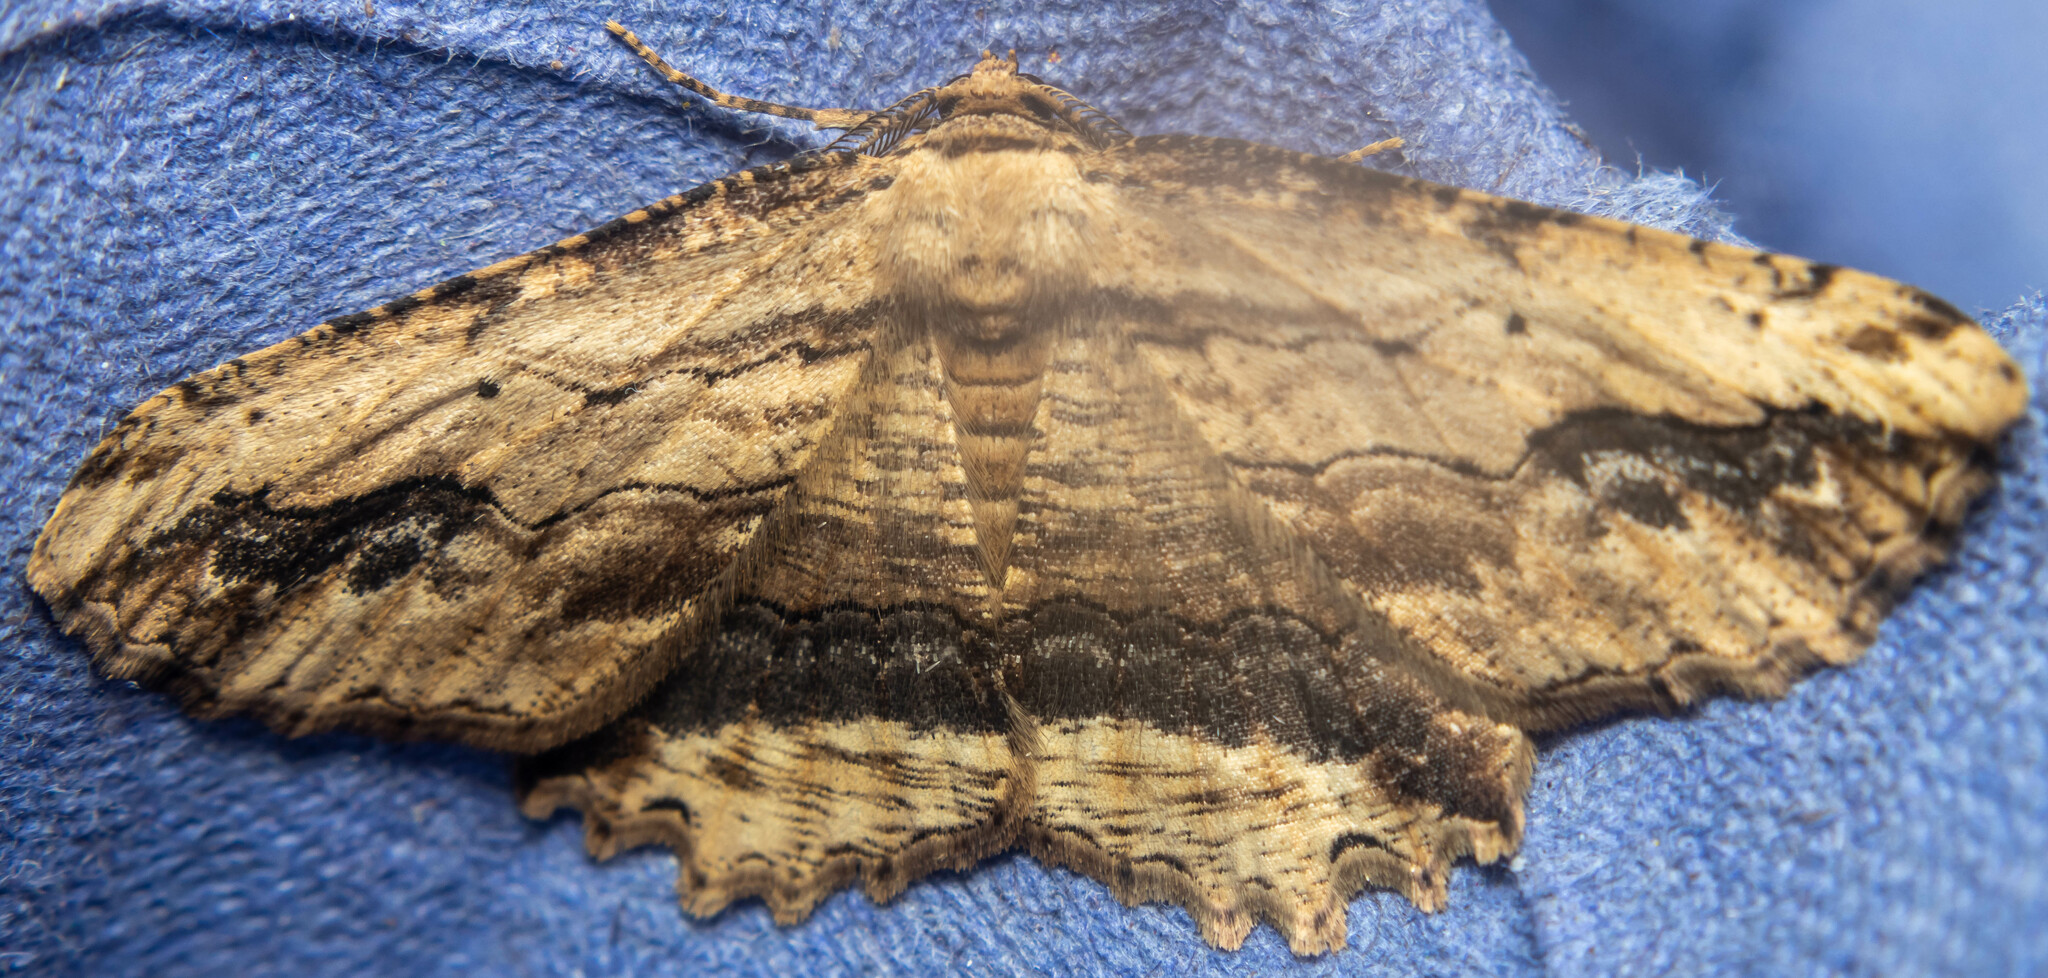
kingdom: Animalia
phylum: Arthropoda
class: Insecta
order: Lepidoptera
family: Geometridae
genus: Menophra
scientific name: Menophra abruptaria
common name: Waved umber
